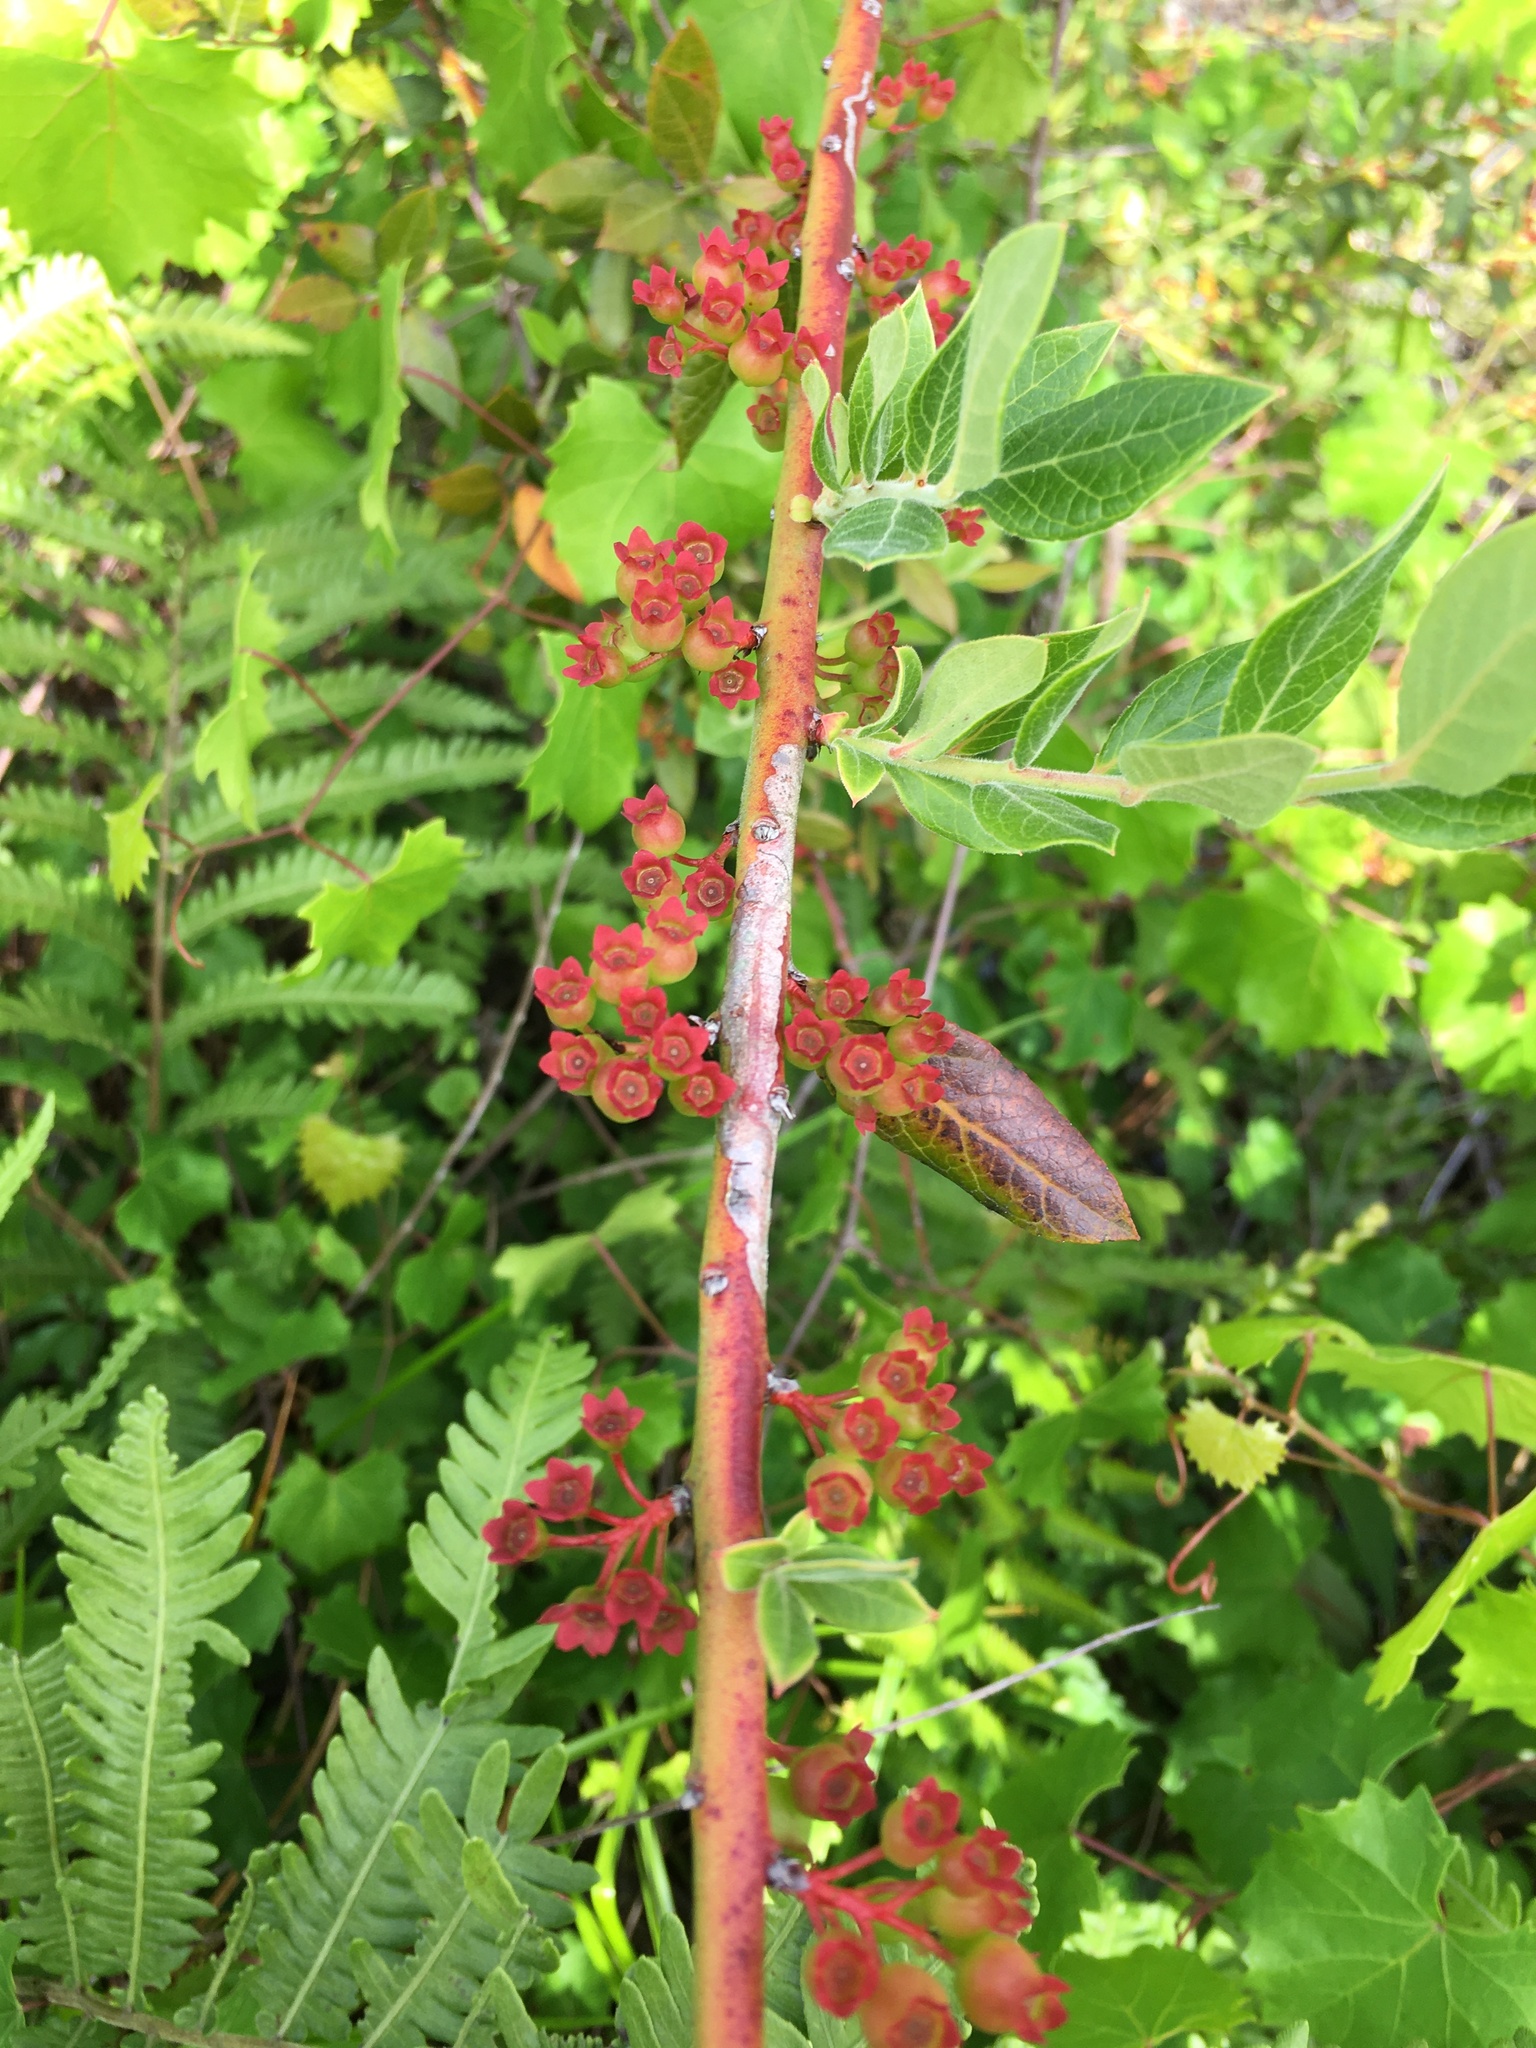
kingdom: Plantae
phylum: Tracheophyta
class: Magnoliopsida
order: Ericales
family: Ericaceae
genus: Vaccinium
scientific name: Vaccinium corymbosum
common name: Blueberry
